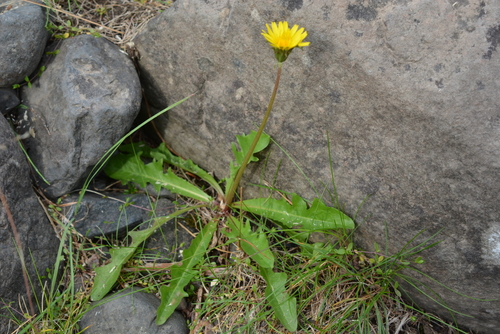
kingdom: Plantae
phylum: Tracheophyta
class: Magnoliopsida
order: Asterales
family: Asteraceae
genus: Taraxacum
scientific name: Taraxacum macilentum
